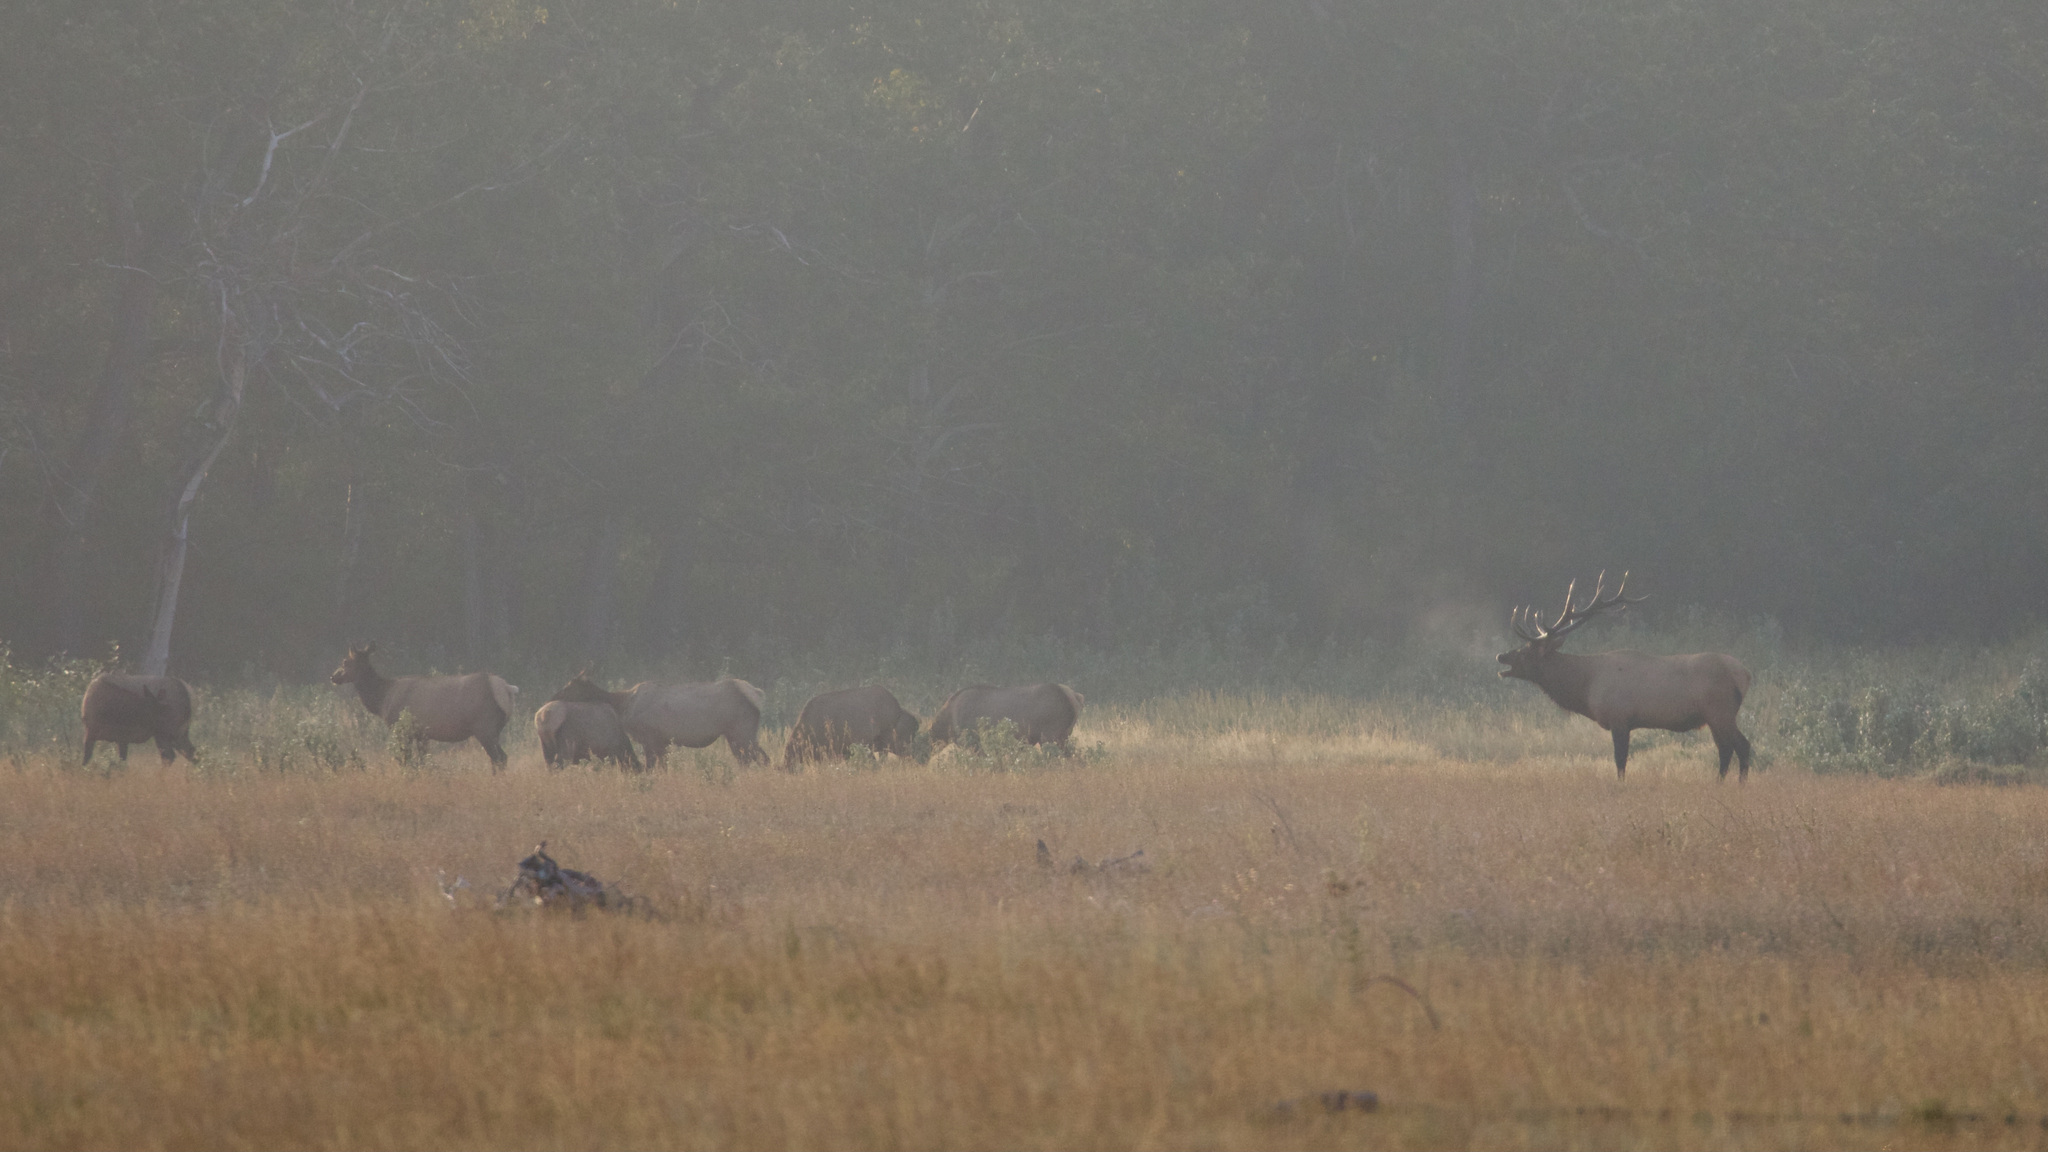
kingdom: Animalia
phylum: Chordata
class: Mammalia
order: Artiodactyla
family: Cervidae
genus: Cervus
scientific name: Cervus elaphus
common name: Red deer
